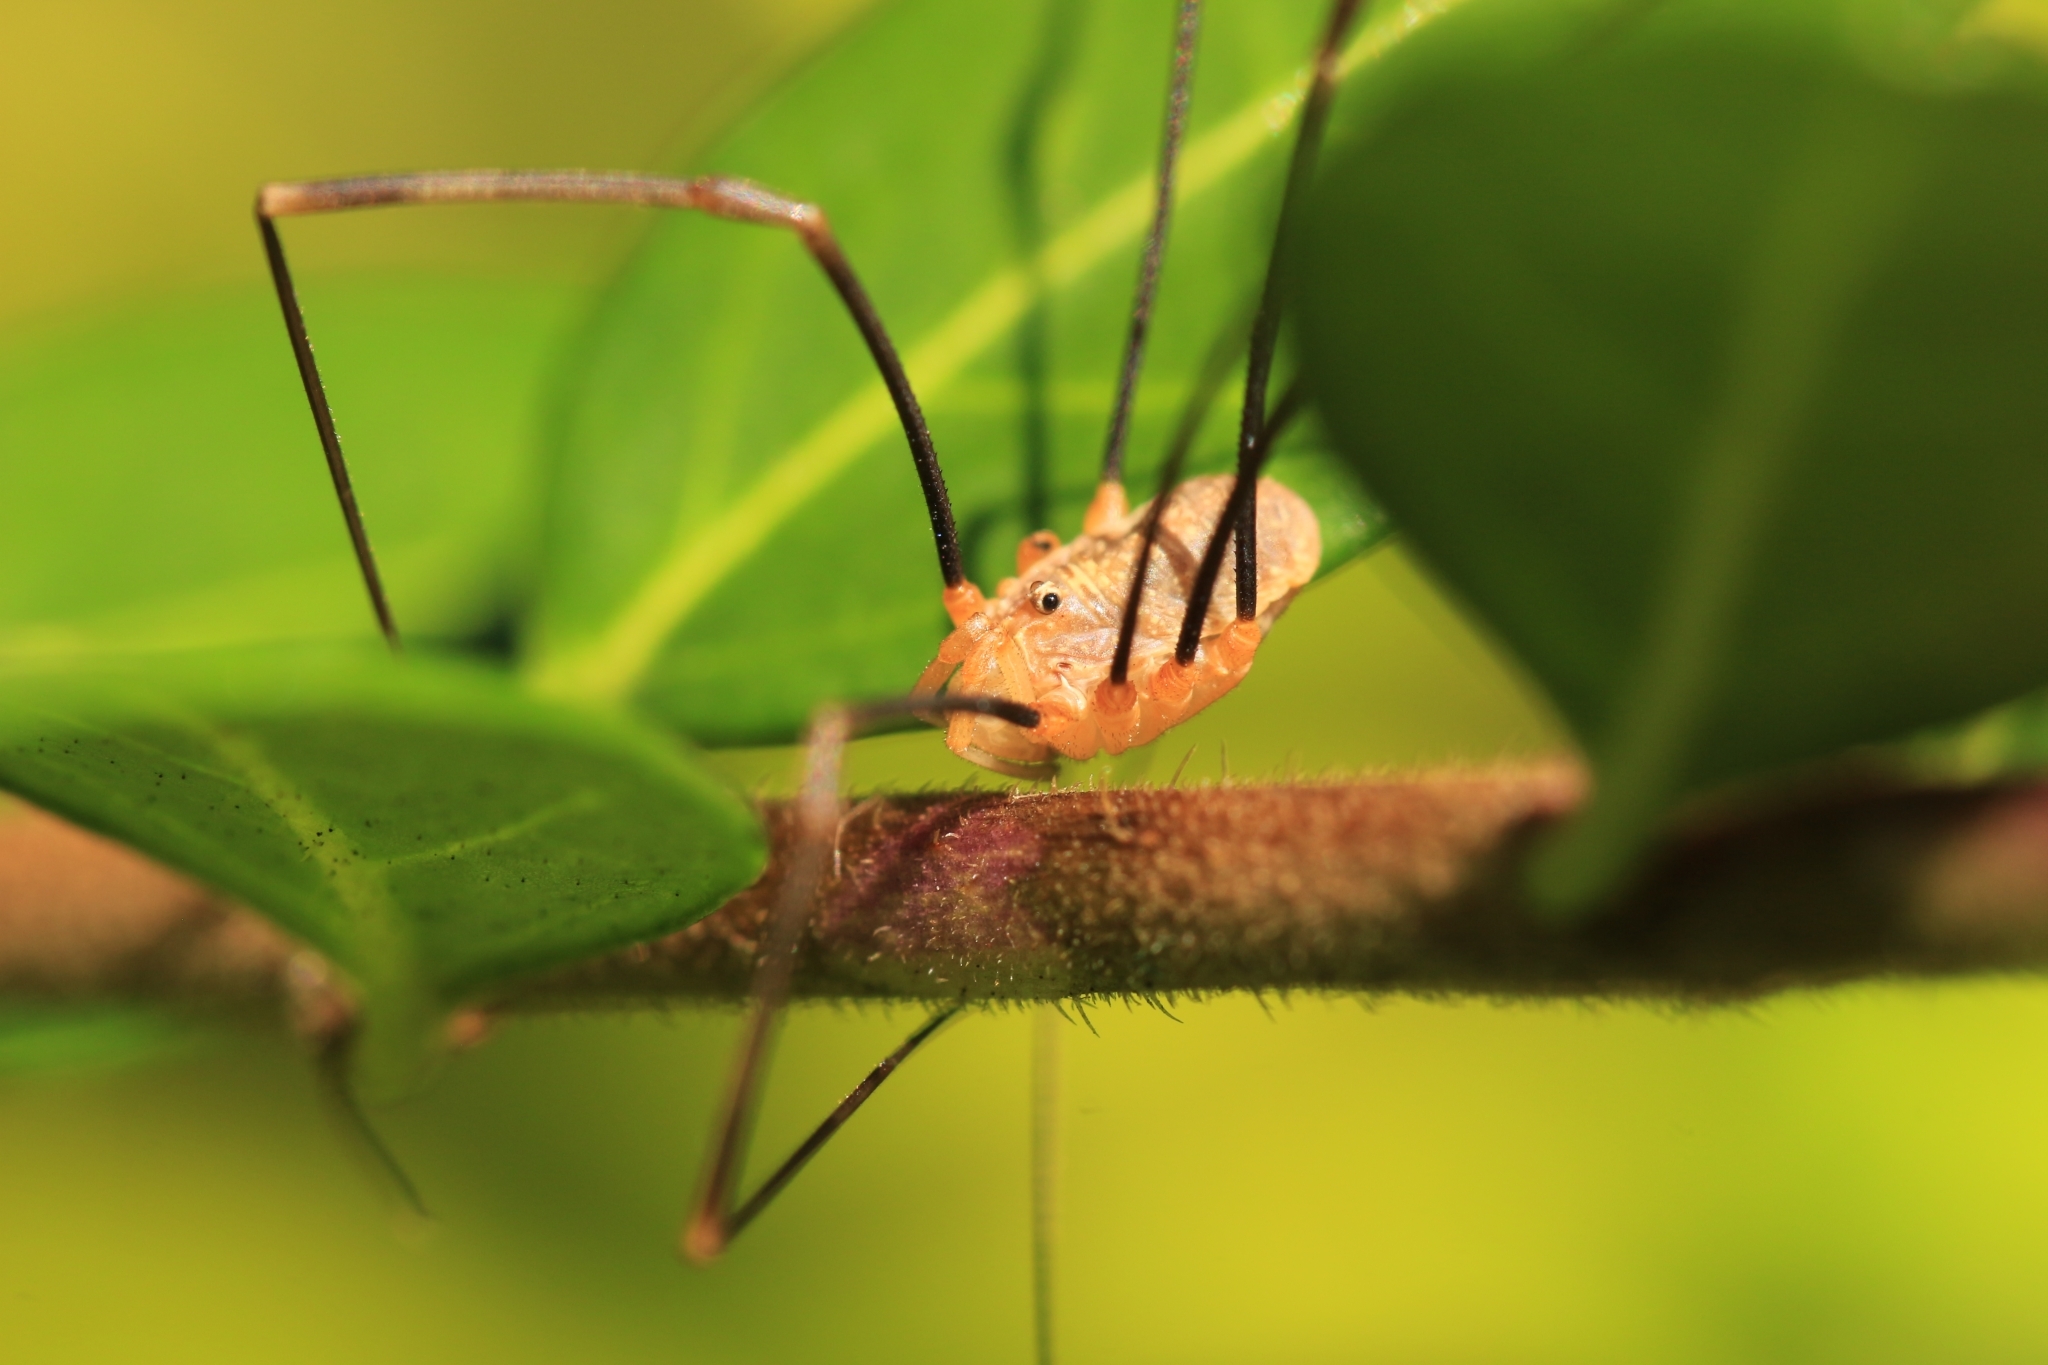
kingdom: Animalia
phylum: Arthropoda
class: Arachnida
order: Opiliones
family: Phalangiidae
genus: Opilio
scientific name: Opilio canestrinii
